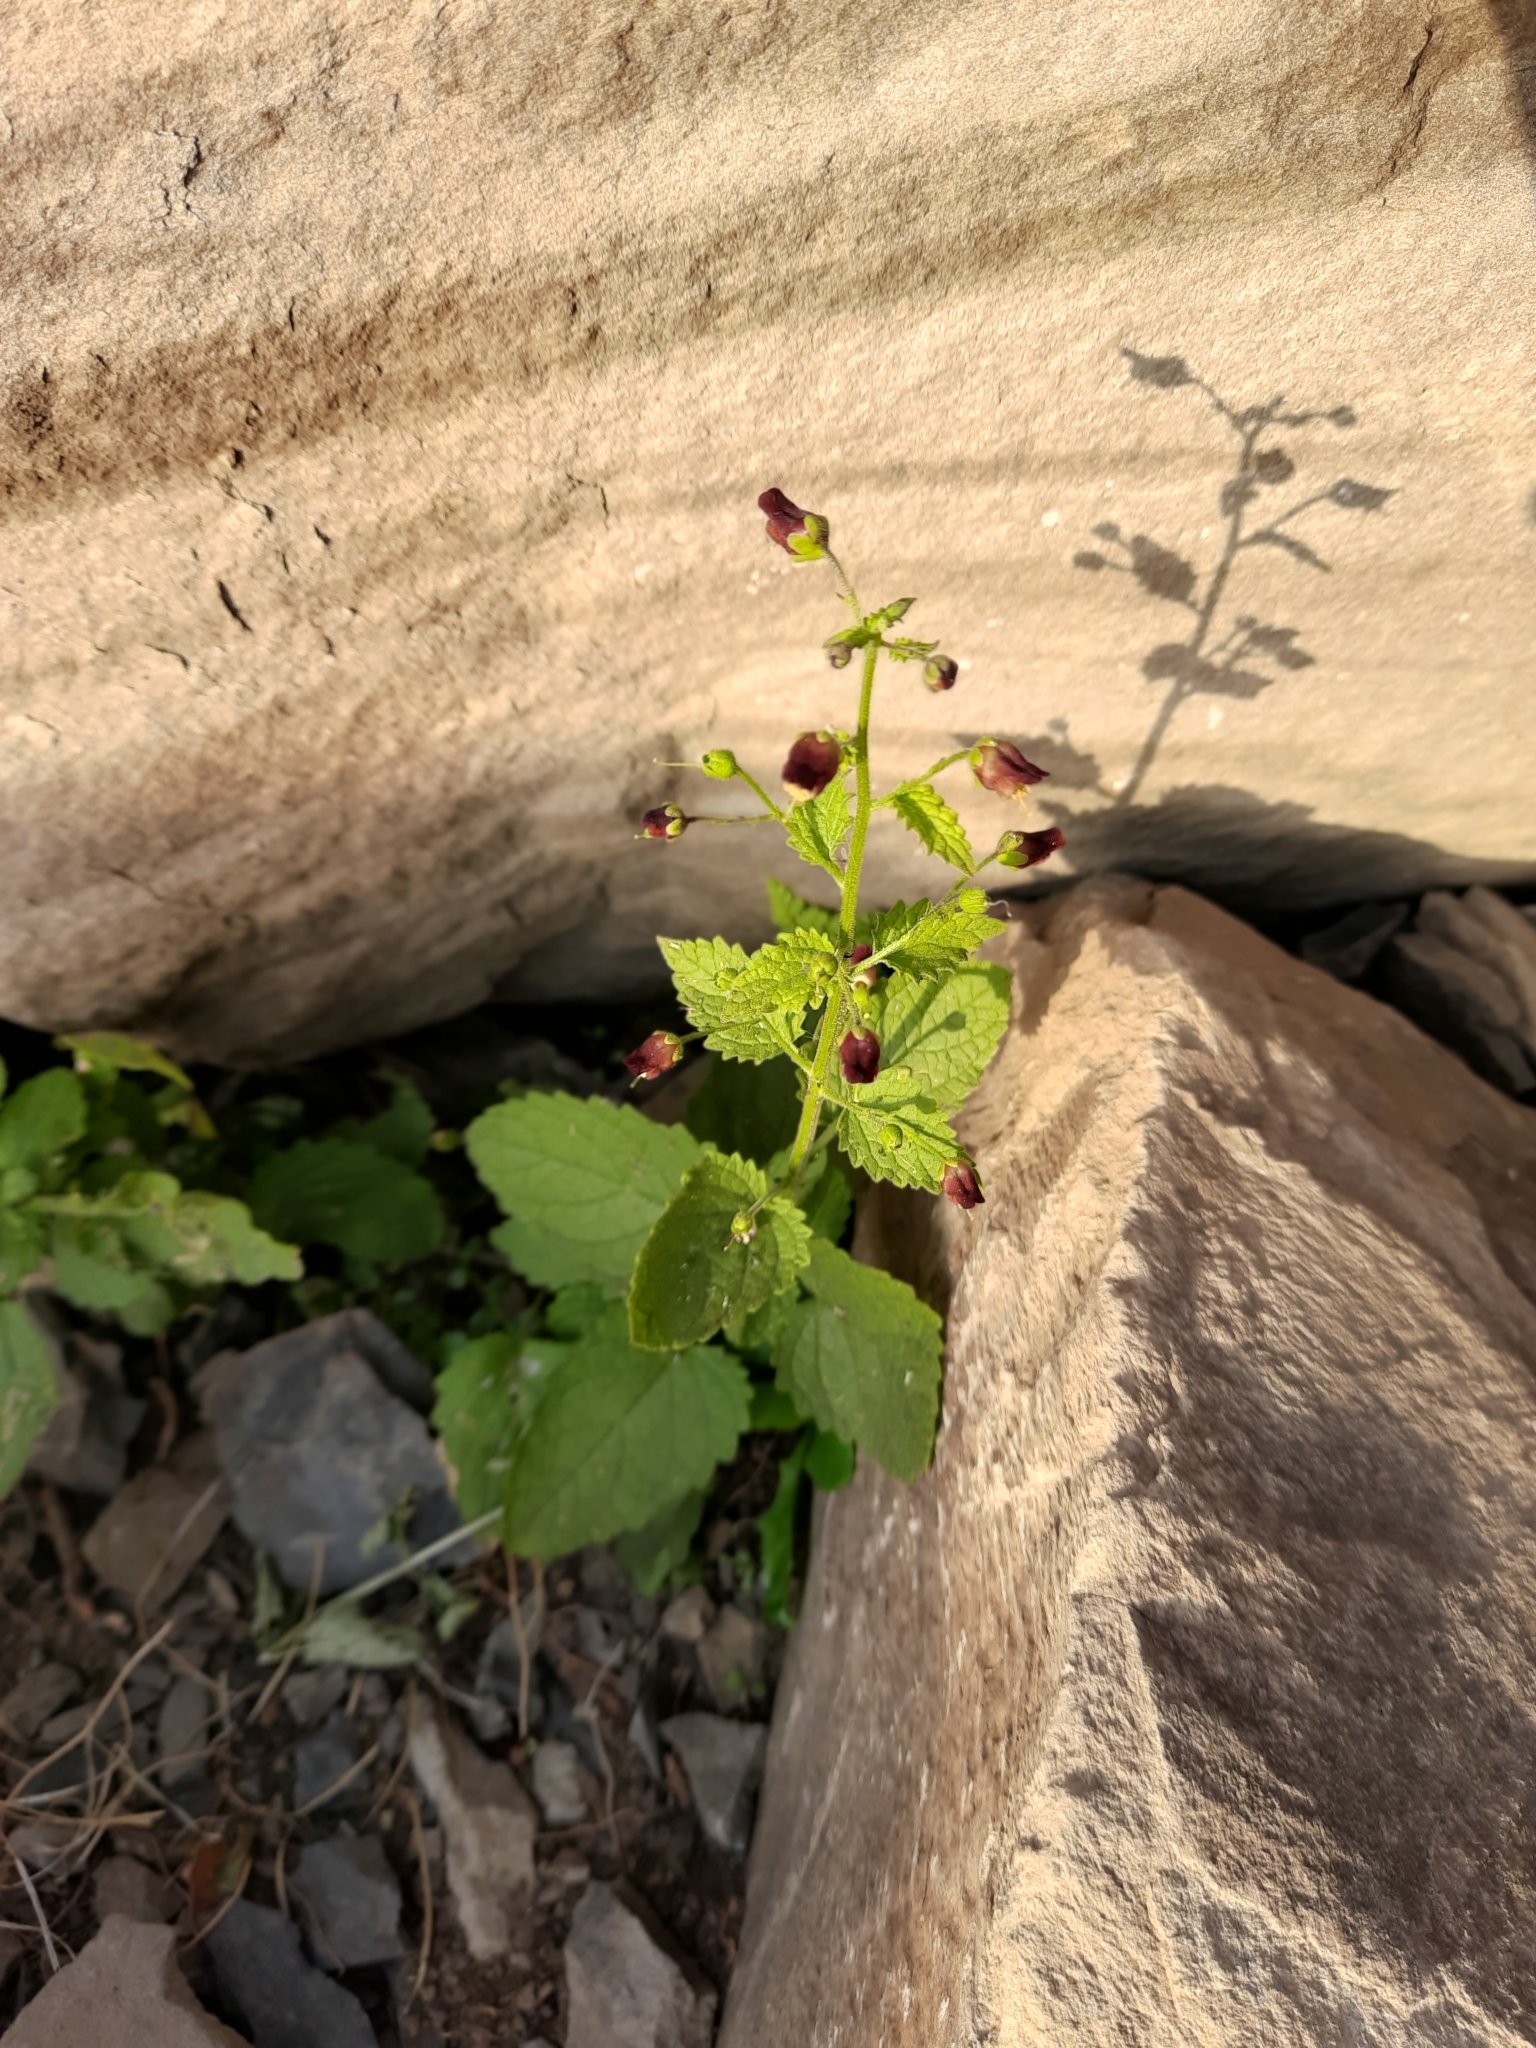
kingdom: Plantae
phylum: Tracheophyta
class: Magnoliopsida
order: Lamiales
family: Scrophulariaceae
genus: Scrophularia
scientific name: Scrophularia scopolii
